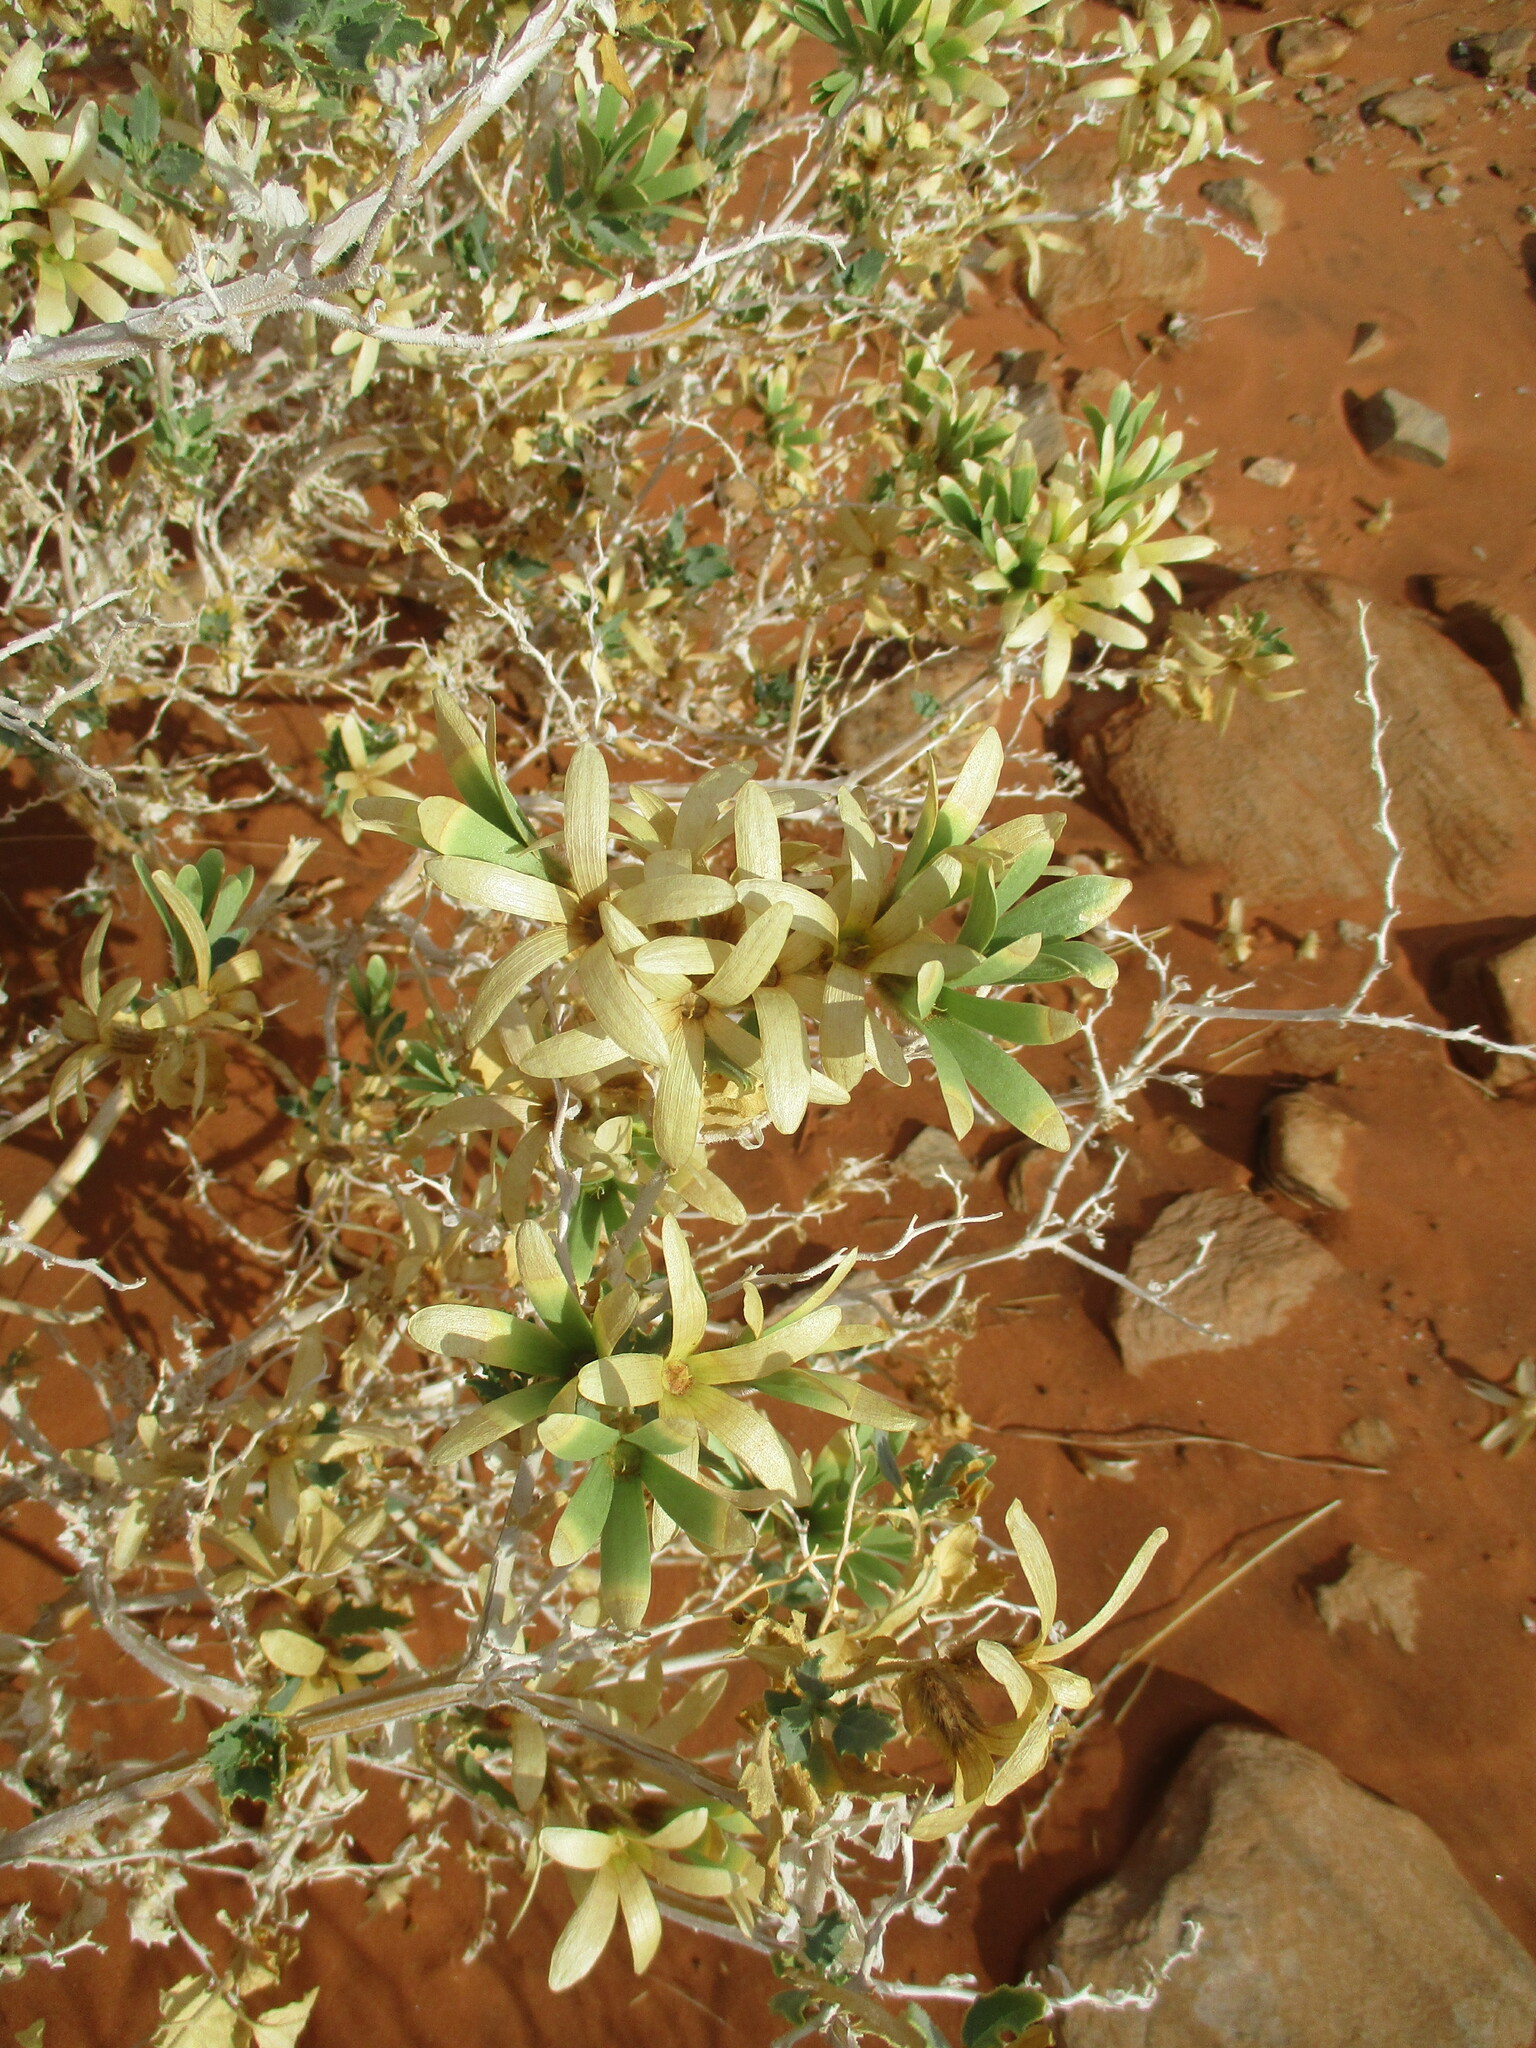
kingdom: Plantae
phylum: Tracheophyta
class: Magnoliopsida
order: Cornales
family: Loasaceae
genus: Kissenia
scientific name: Kissenia capensis
